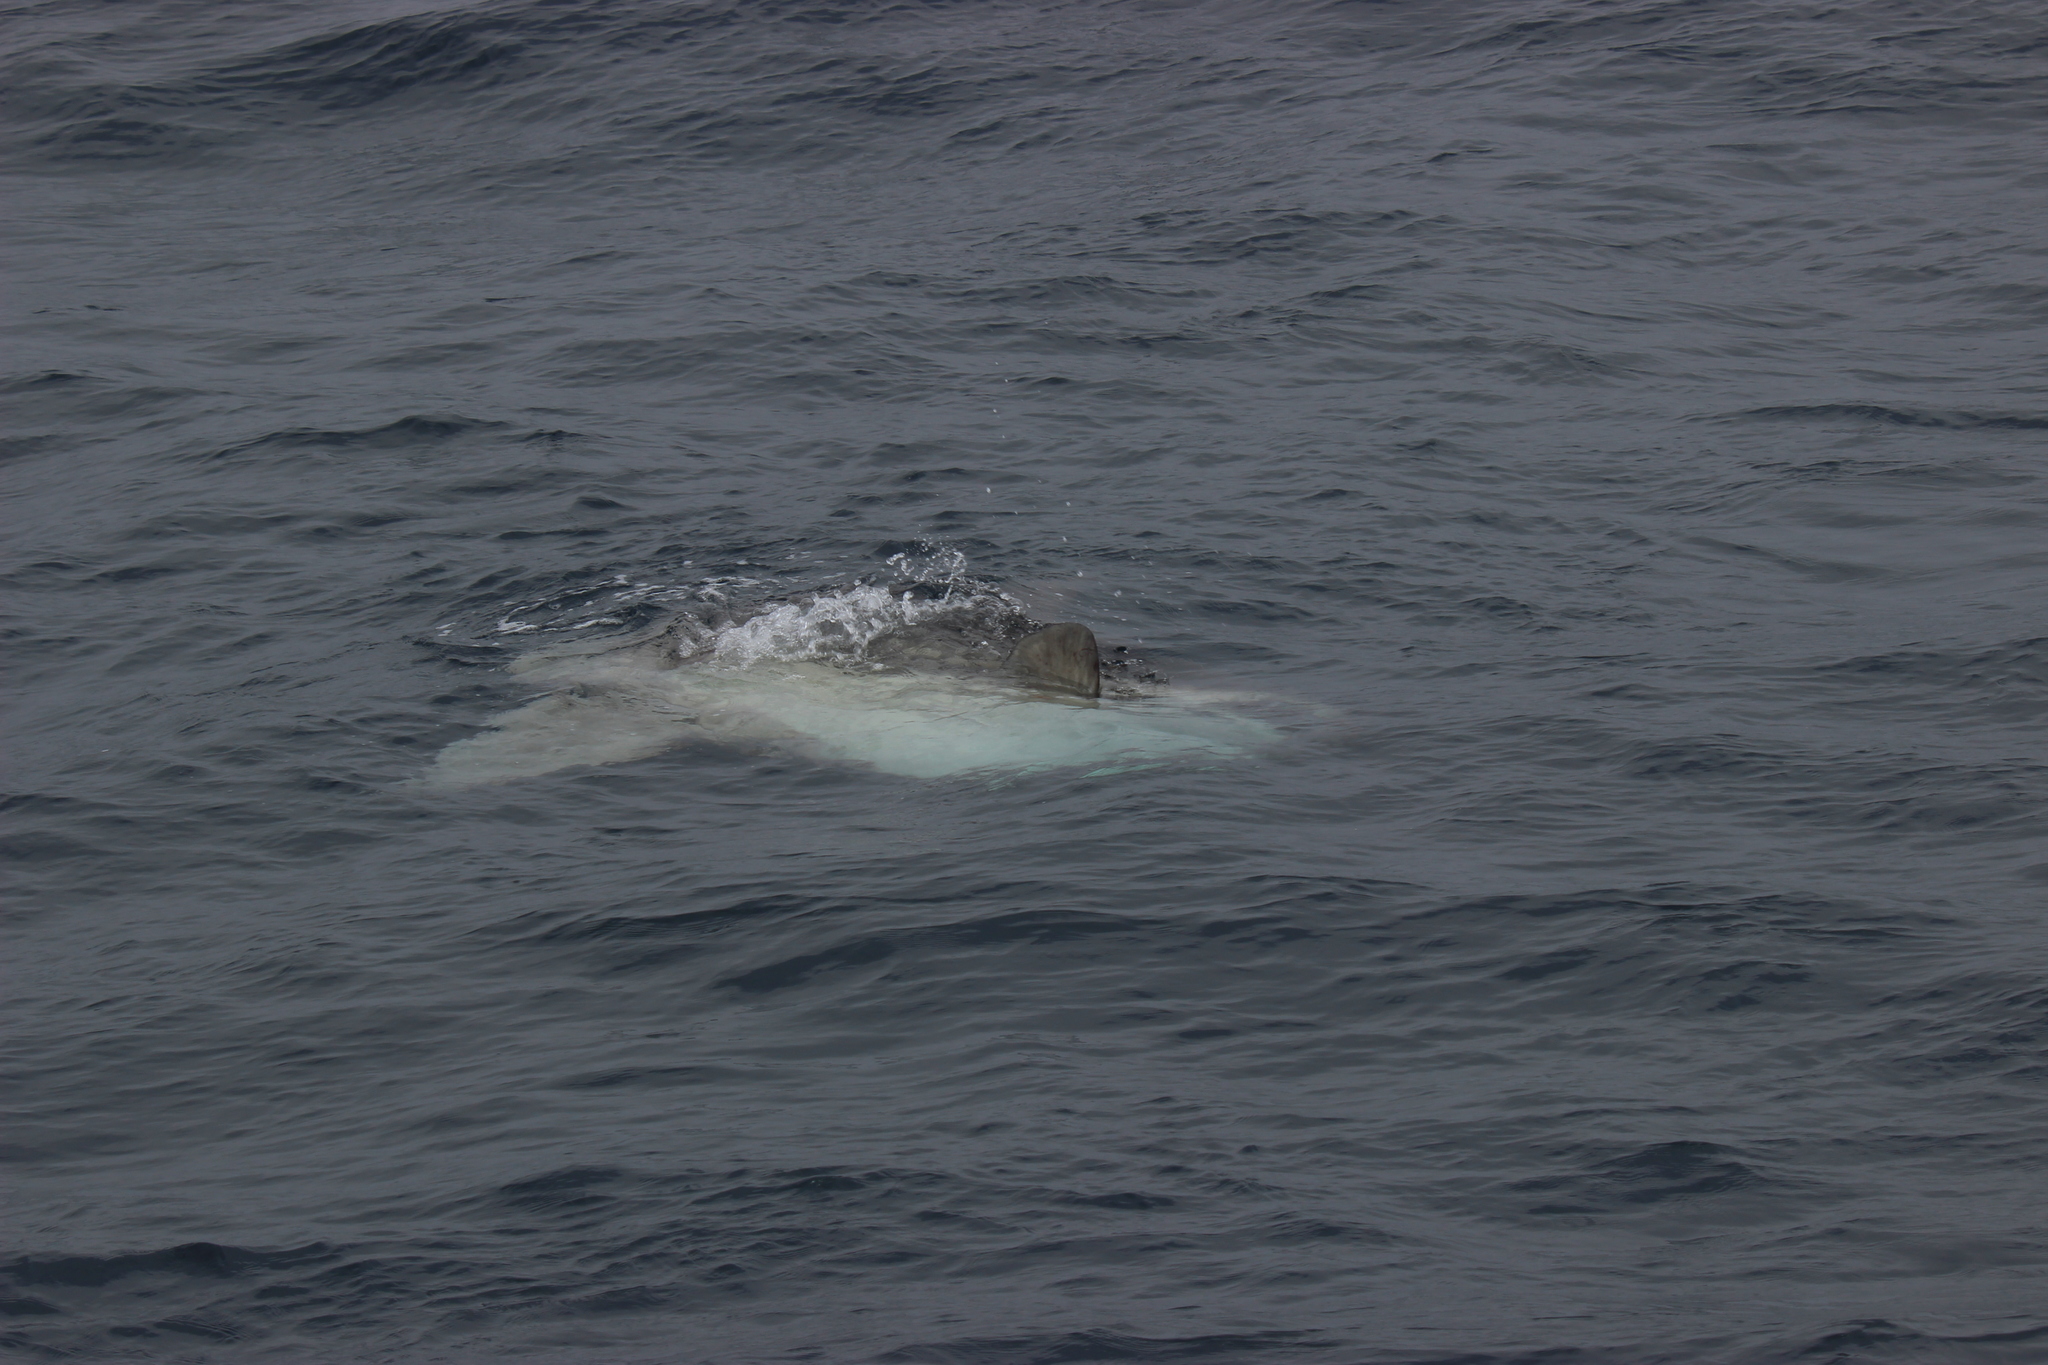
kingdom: Animalia
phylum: Chordata
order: Tetraodontiformes
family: Molidae
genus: Mola
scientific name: Mola mola
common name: Ocean sunfish
